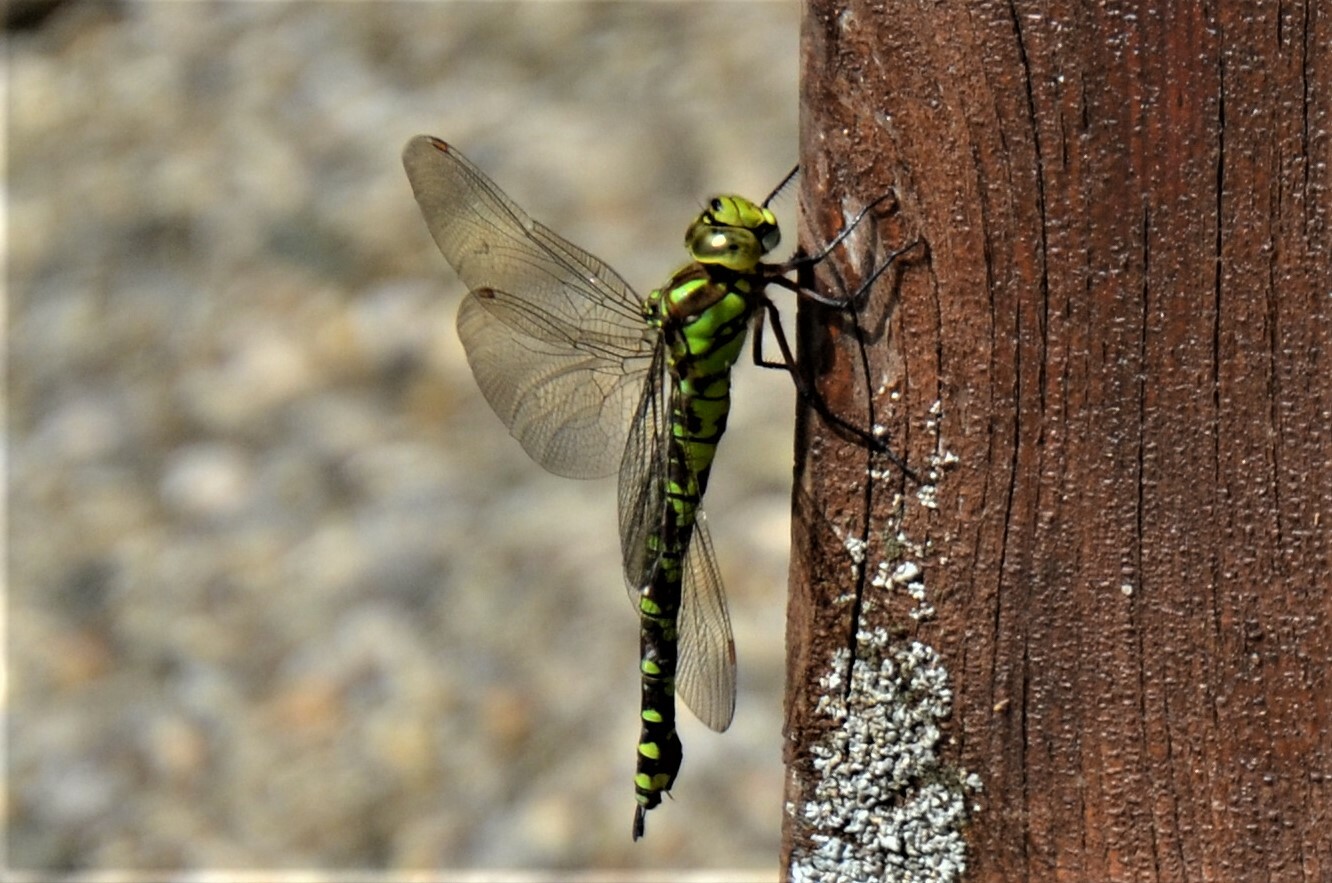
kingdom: Animalia
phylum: Arthropoda
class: Insecta
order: Odonata
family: Aeshnidae
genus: Aeshna
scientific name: Aeshna cyanea
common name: Southern hawker
